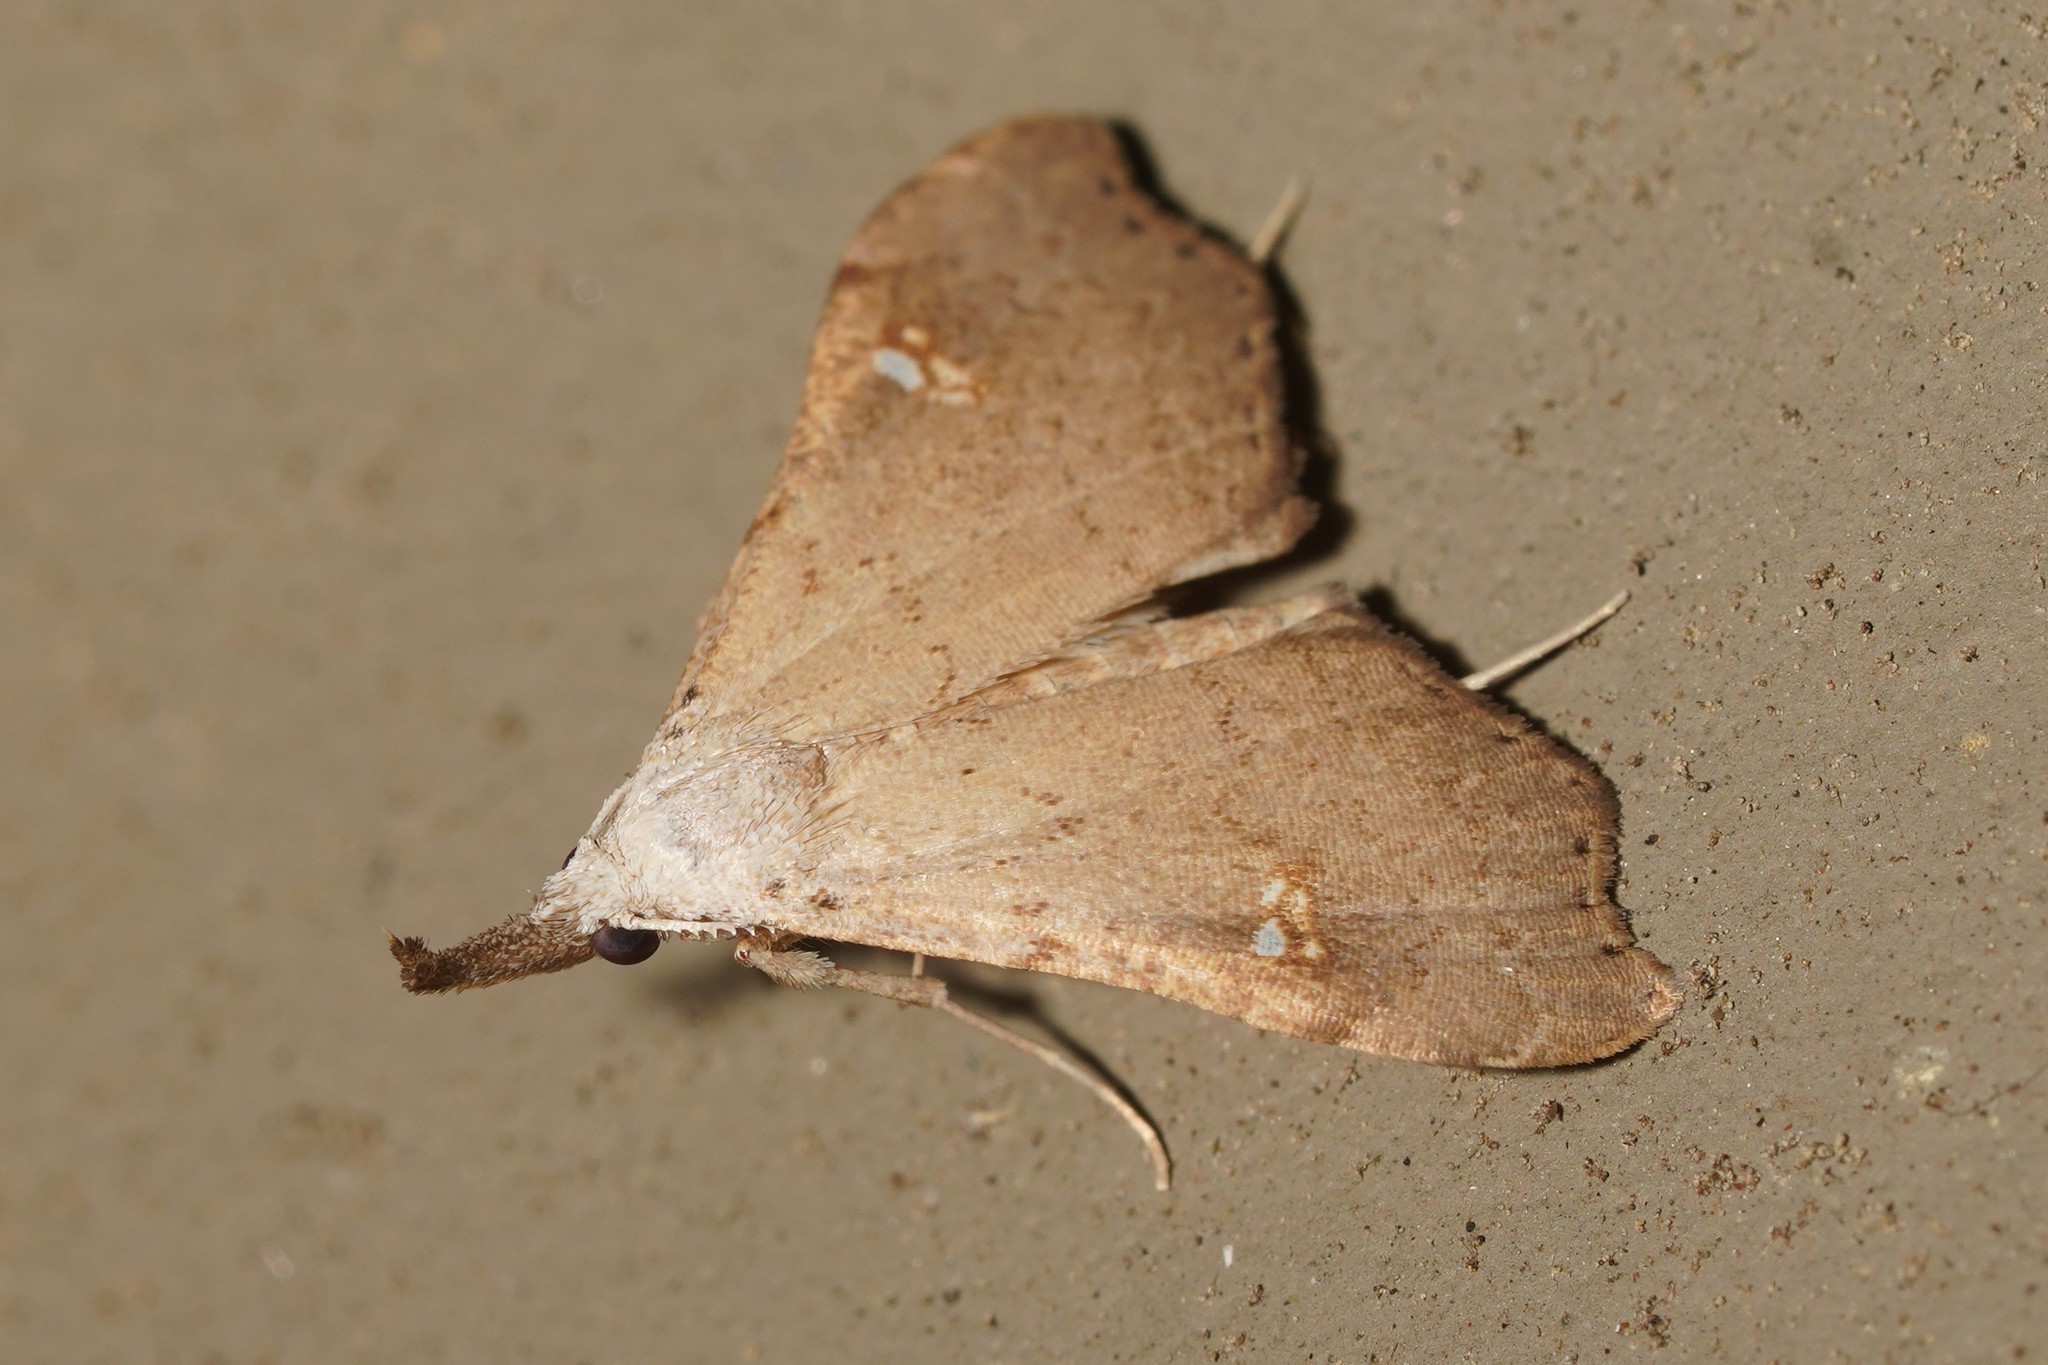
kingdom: Animalia
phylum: Arthropoda
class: Insecta
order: Lepidoptera
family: Erebidae
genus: Redectis
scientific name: Redectis vitrea
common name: White-spotted redectis
